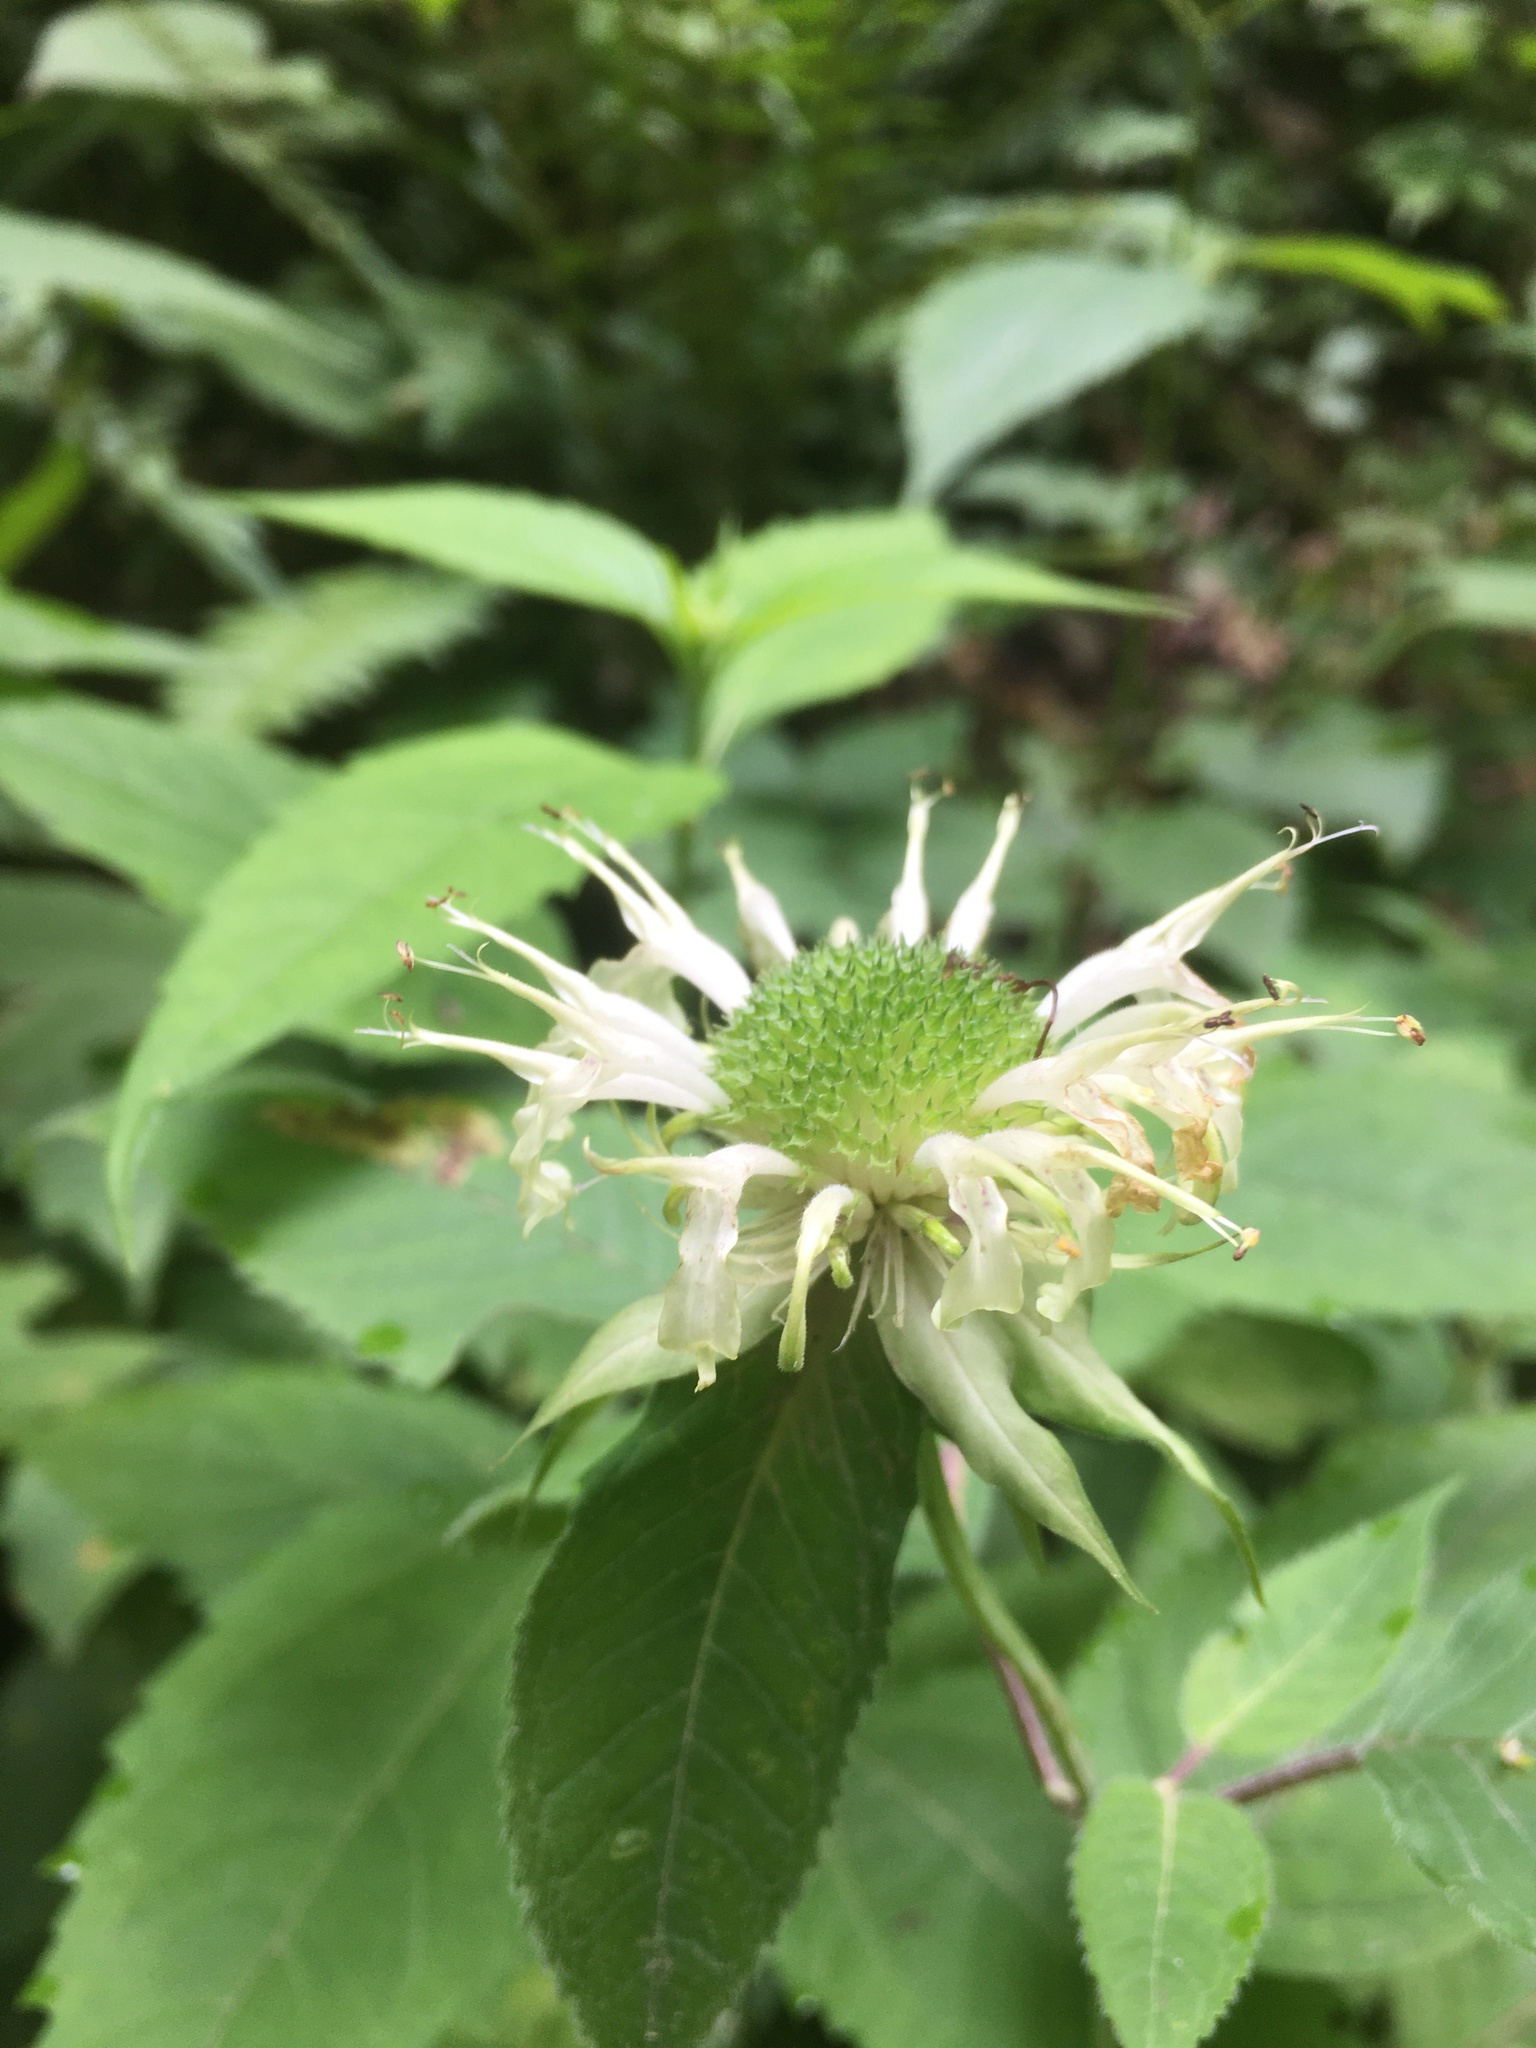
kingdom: Plantae
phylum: Tracheophyta
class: Magnoliopsida
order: Lamiales
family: Lamiaceae
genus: Monarda
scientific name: Monarda clinopodia
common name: Basil beebalm
